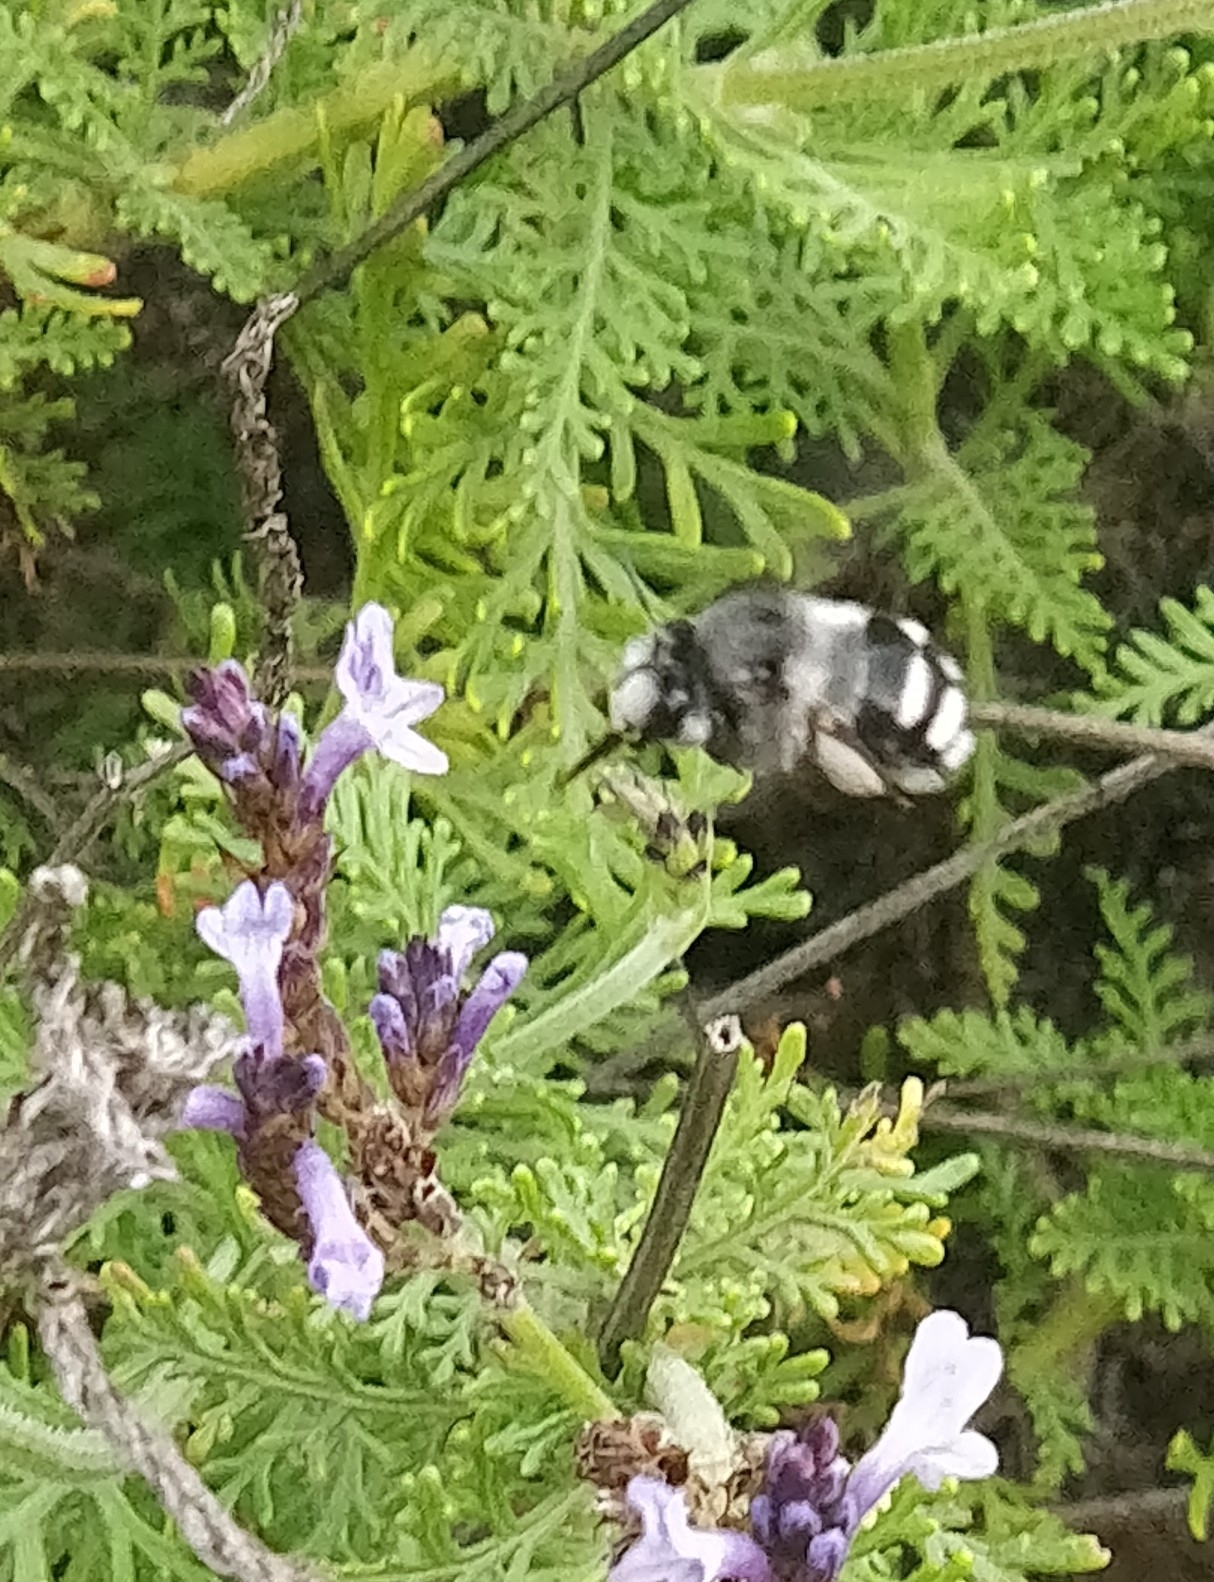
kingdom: Animalia
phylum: Arthropoda
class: Insecta
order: Hymenoptera
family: Apidae
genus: Anthophora
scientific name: Anthophora alluaudi
